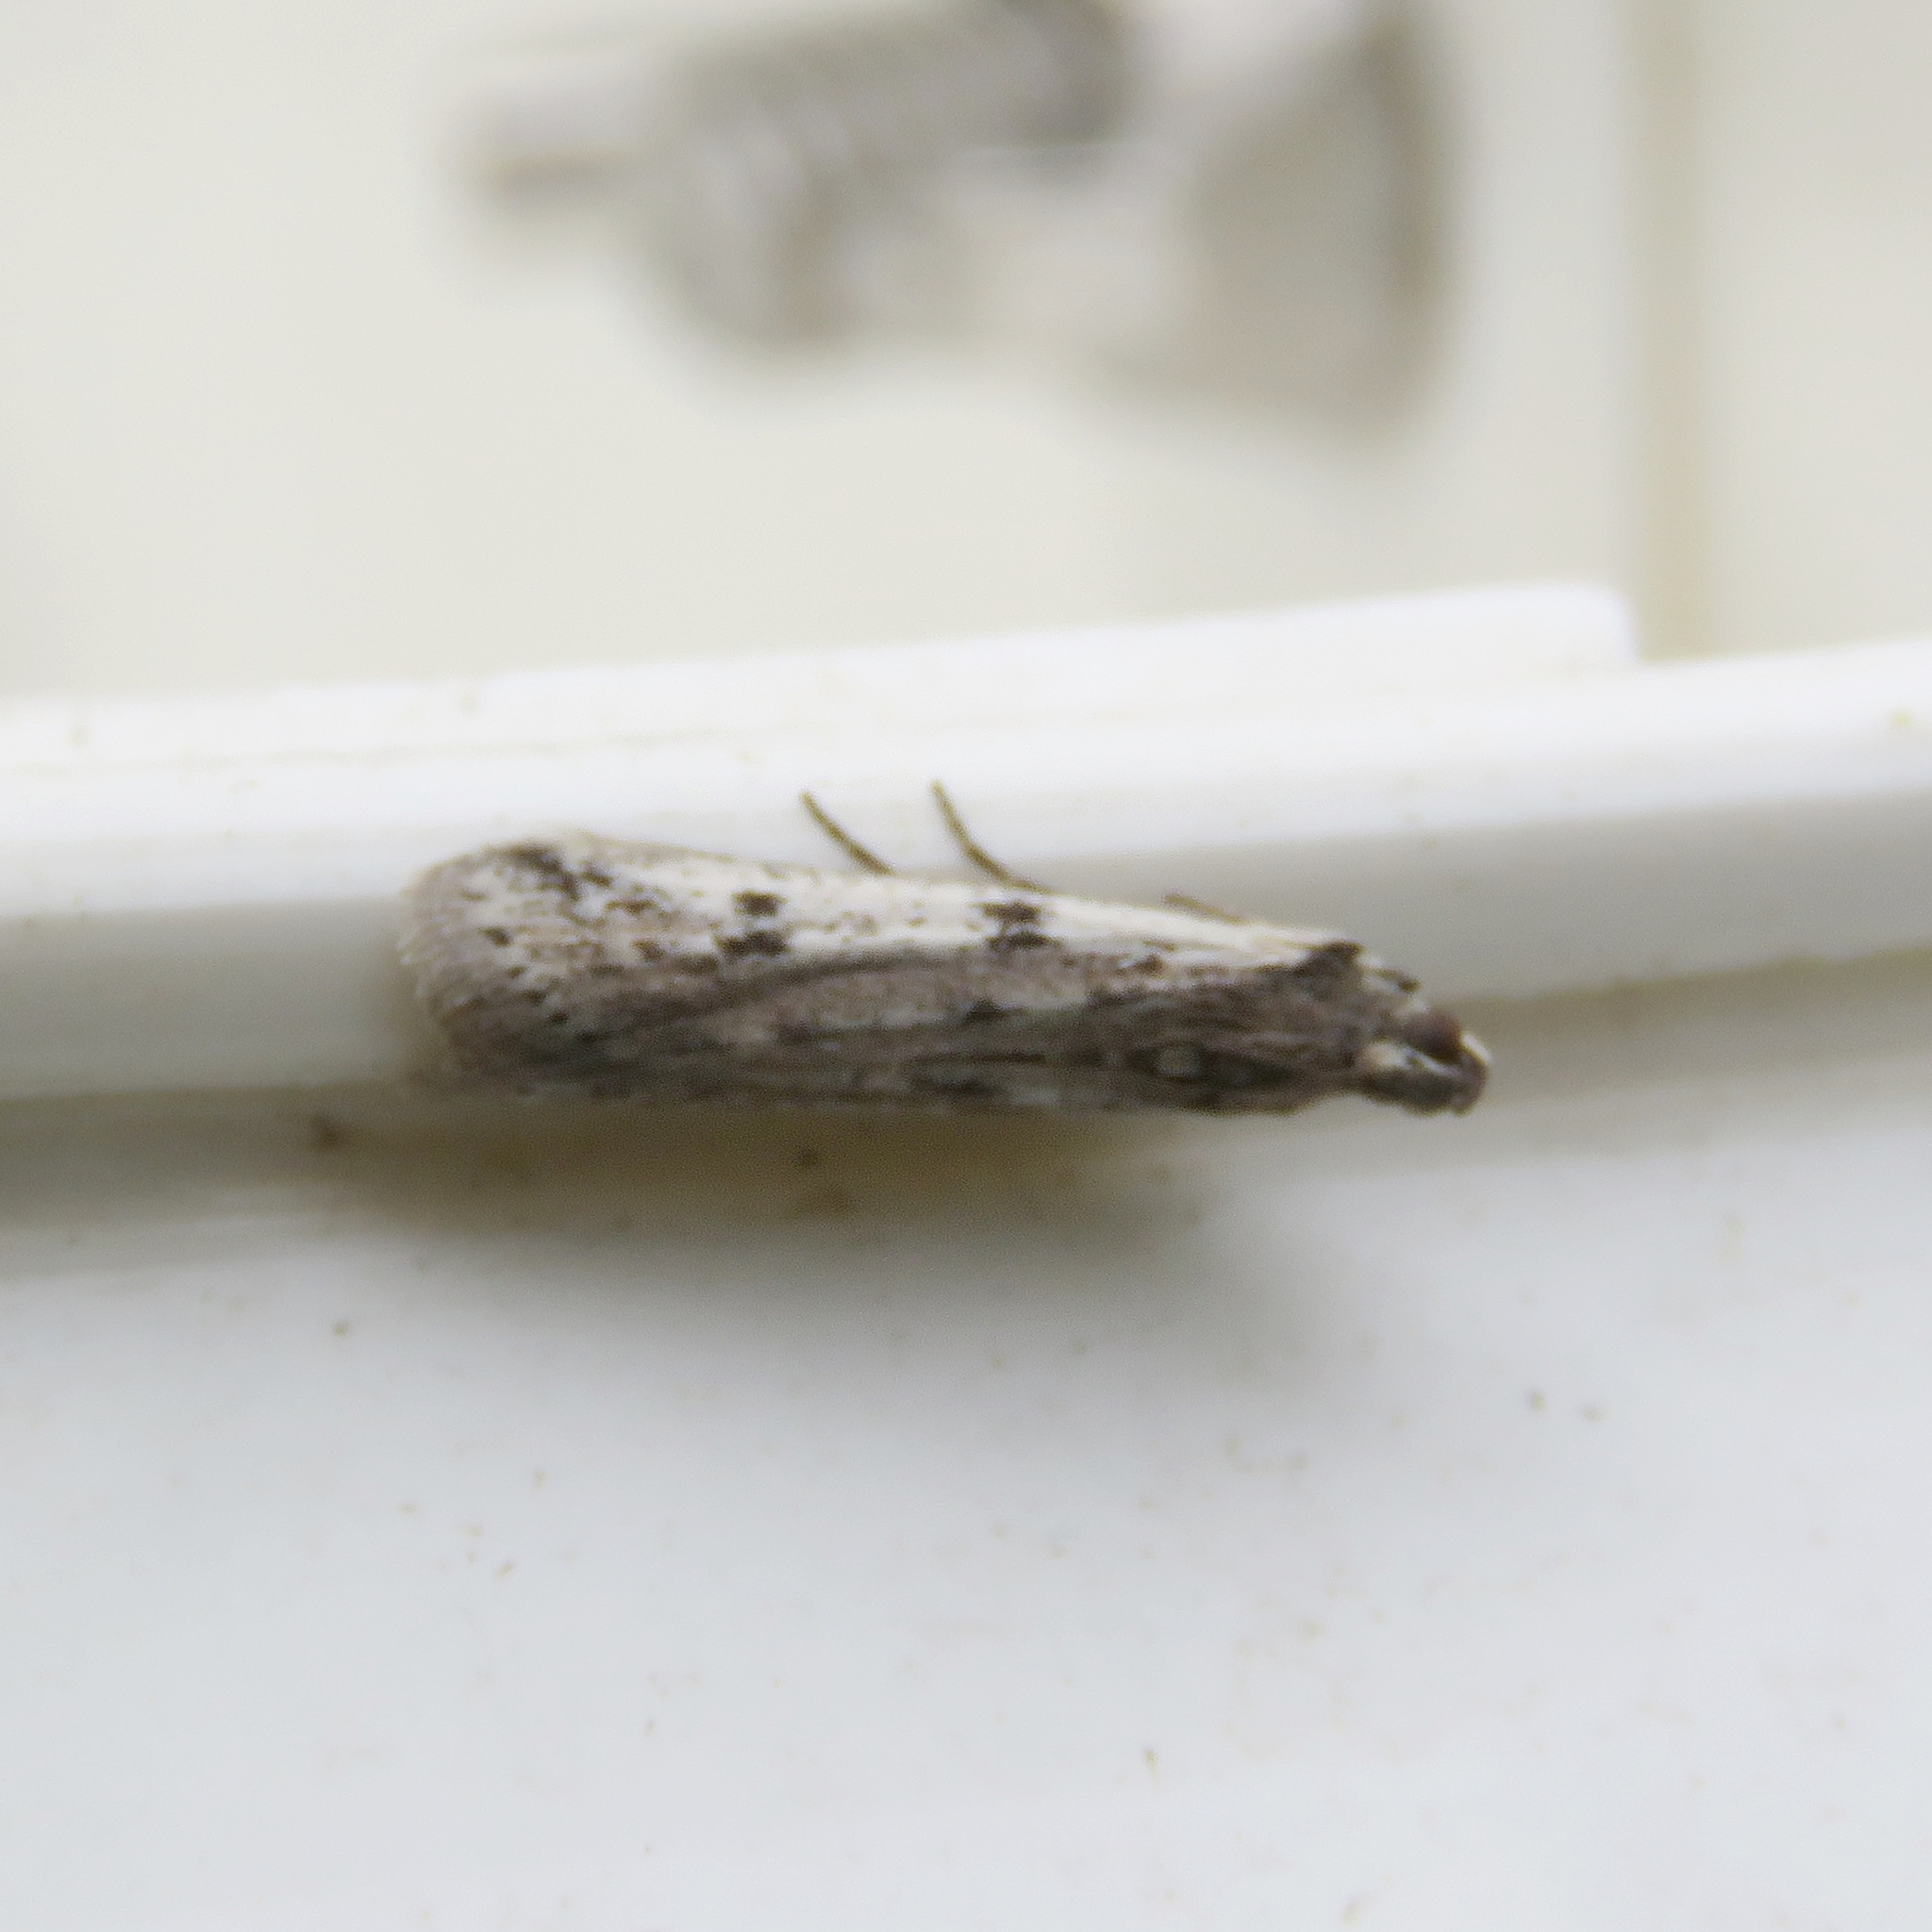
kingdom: Animalia
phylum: Arthropoda
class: Insecta
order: Lepidoptera
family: Pyralidae
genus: Phycitodes
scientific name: Phycitodes binaevella
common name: Ermine knot-horn
